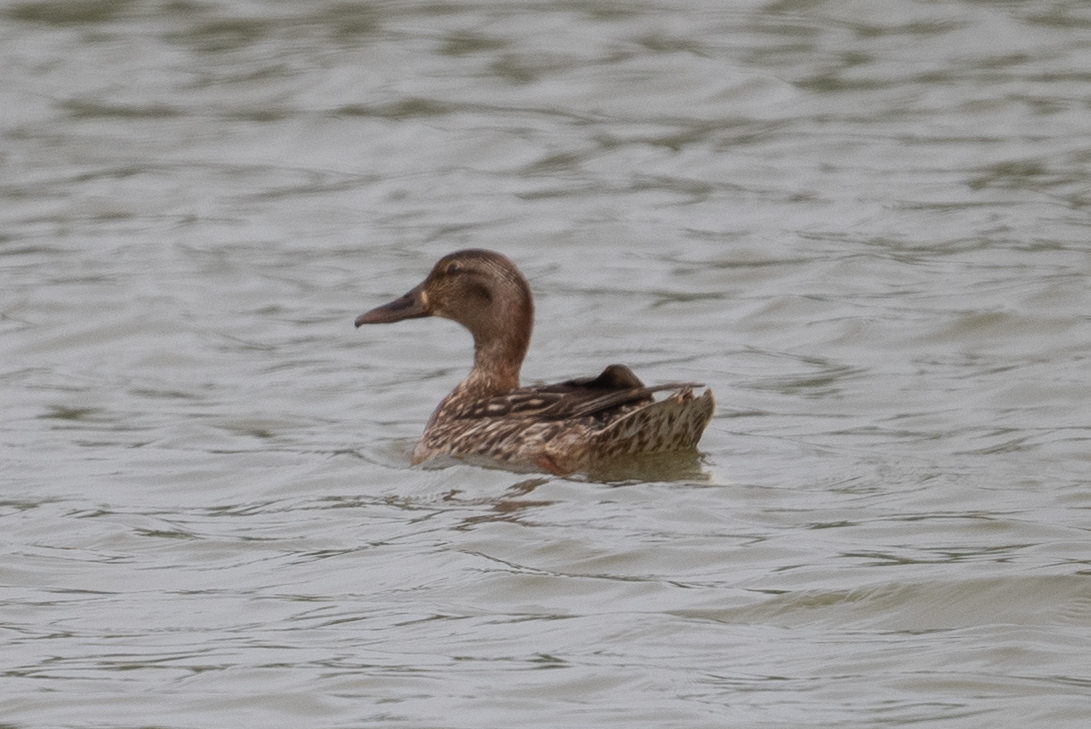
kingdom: Animalia
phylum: Chordata
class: Aves
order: Anseriformes
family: Anatidae
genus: Anas
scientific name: Anas platyrhynchos
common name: Mallard
